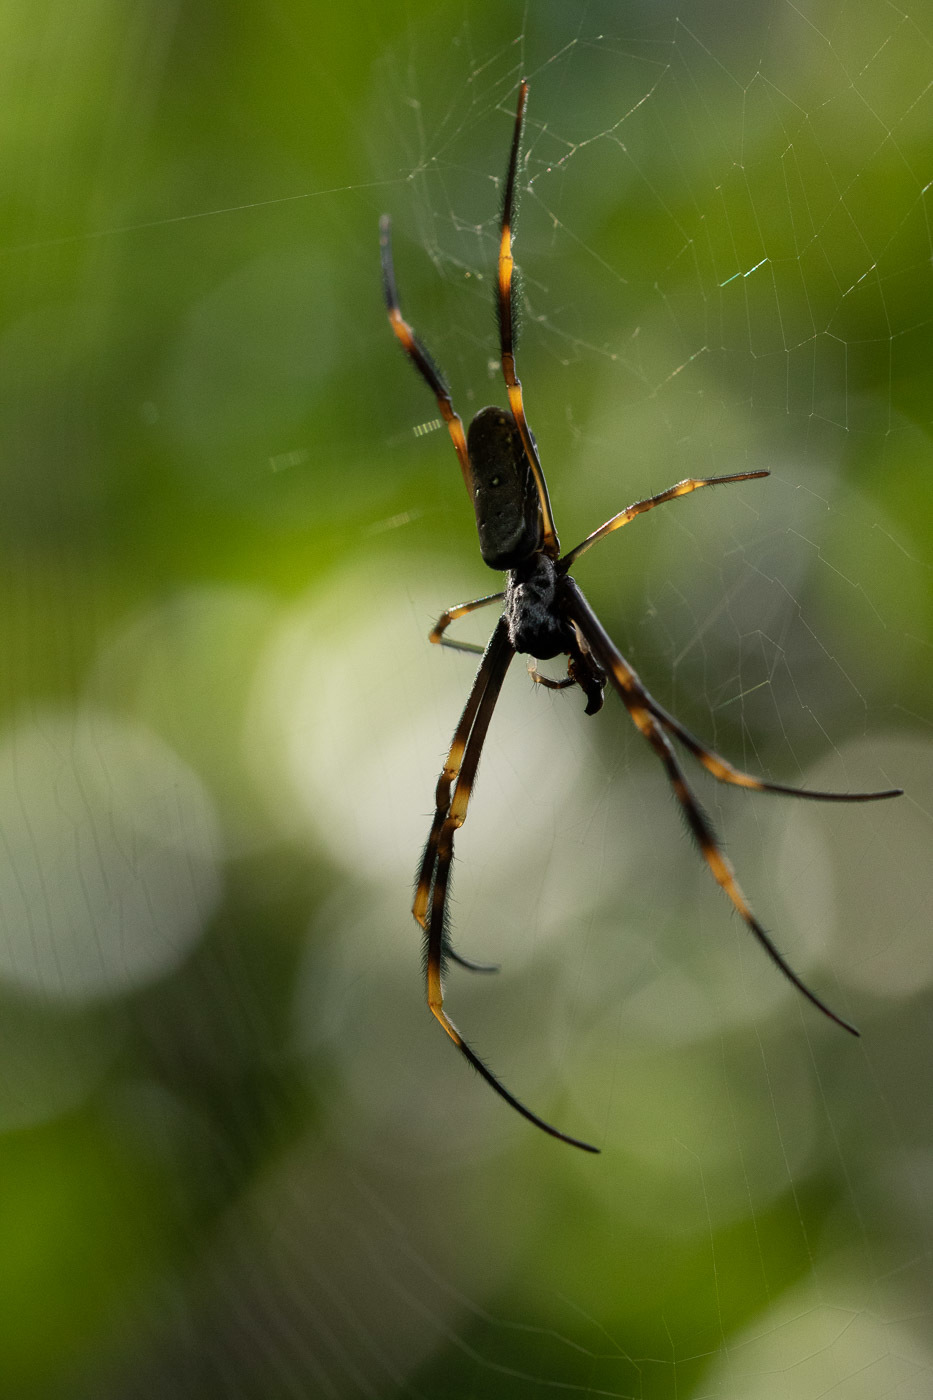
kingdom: Animalia
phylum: Arthropoda
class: Arachnida
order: Araneae
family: Araneidae
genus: Trichonephila
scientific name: Trichonephila plumipes
